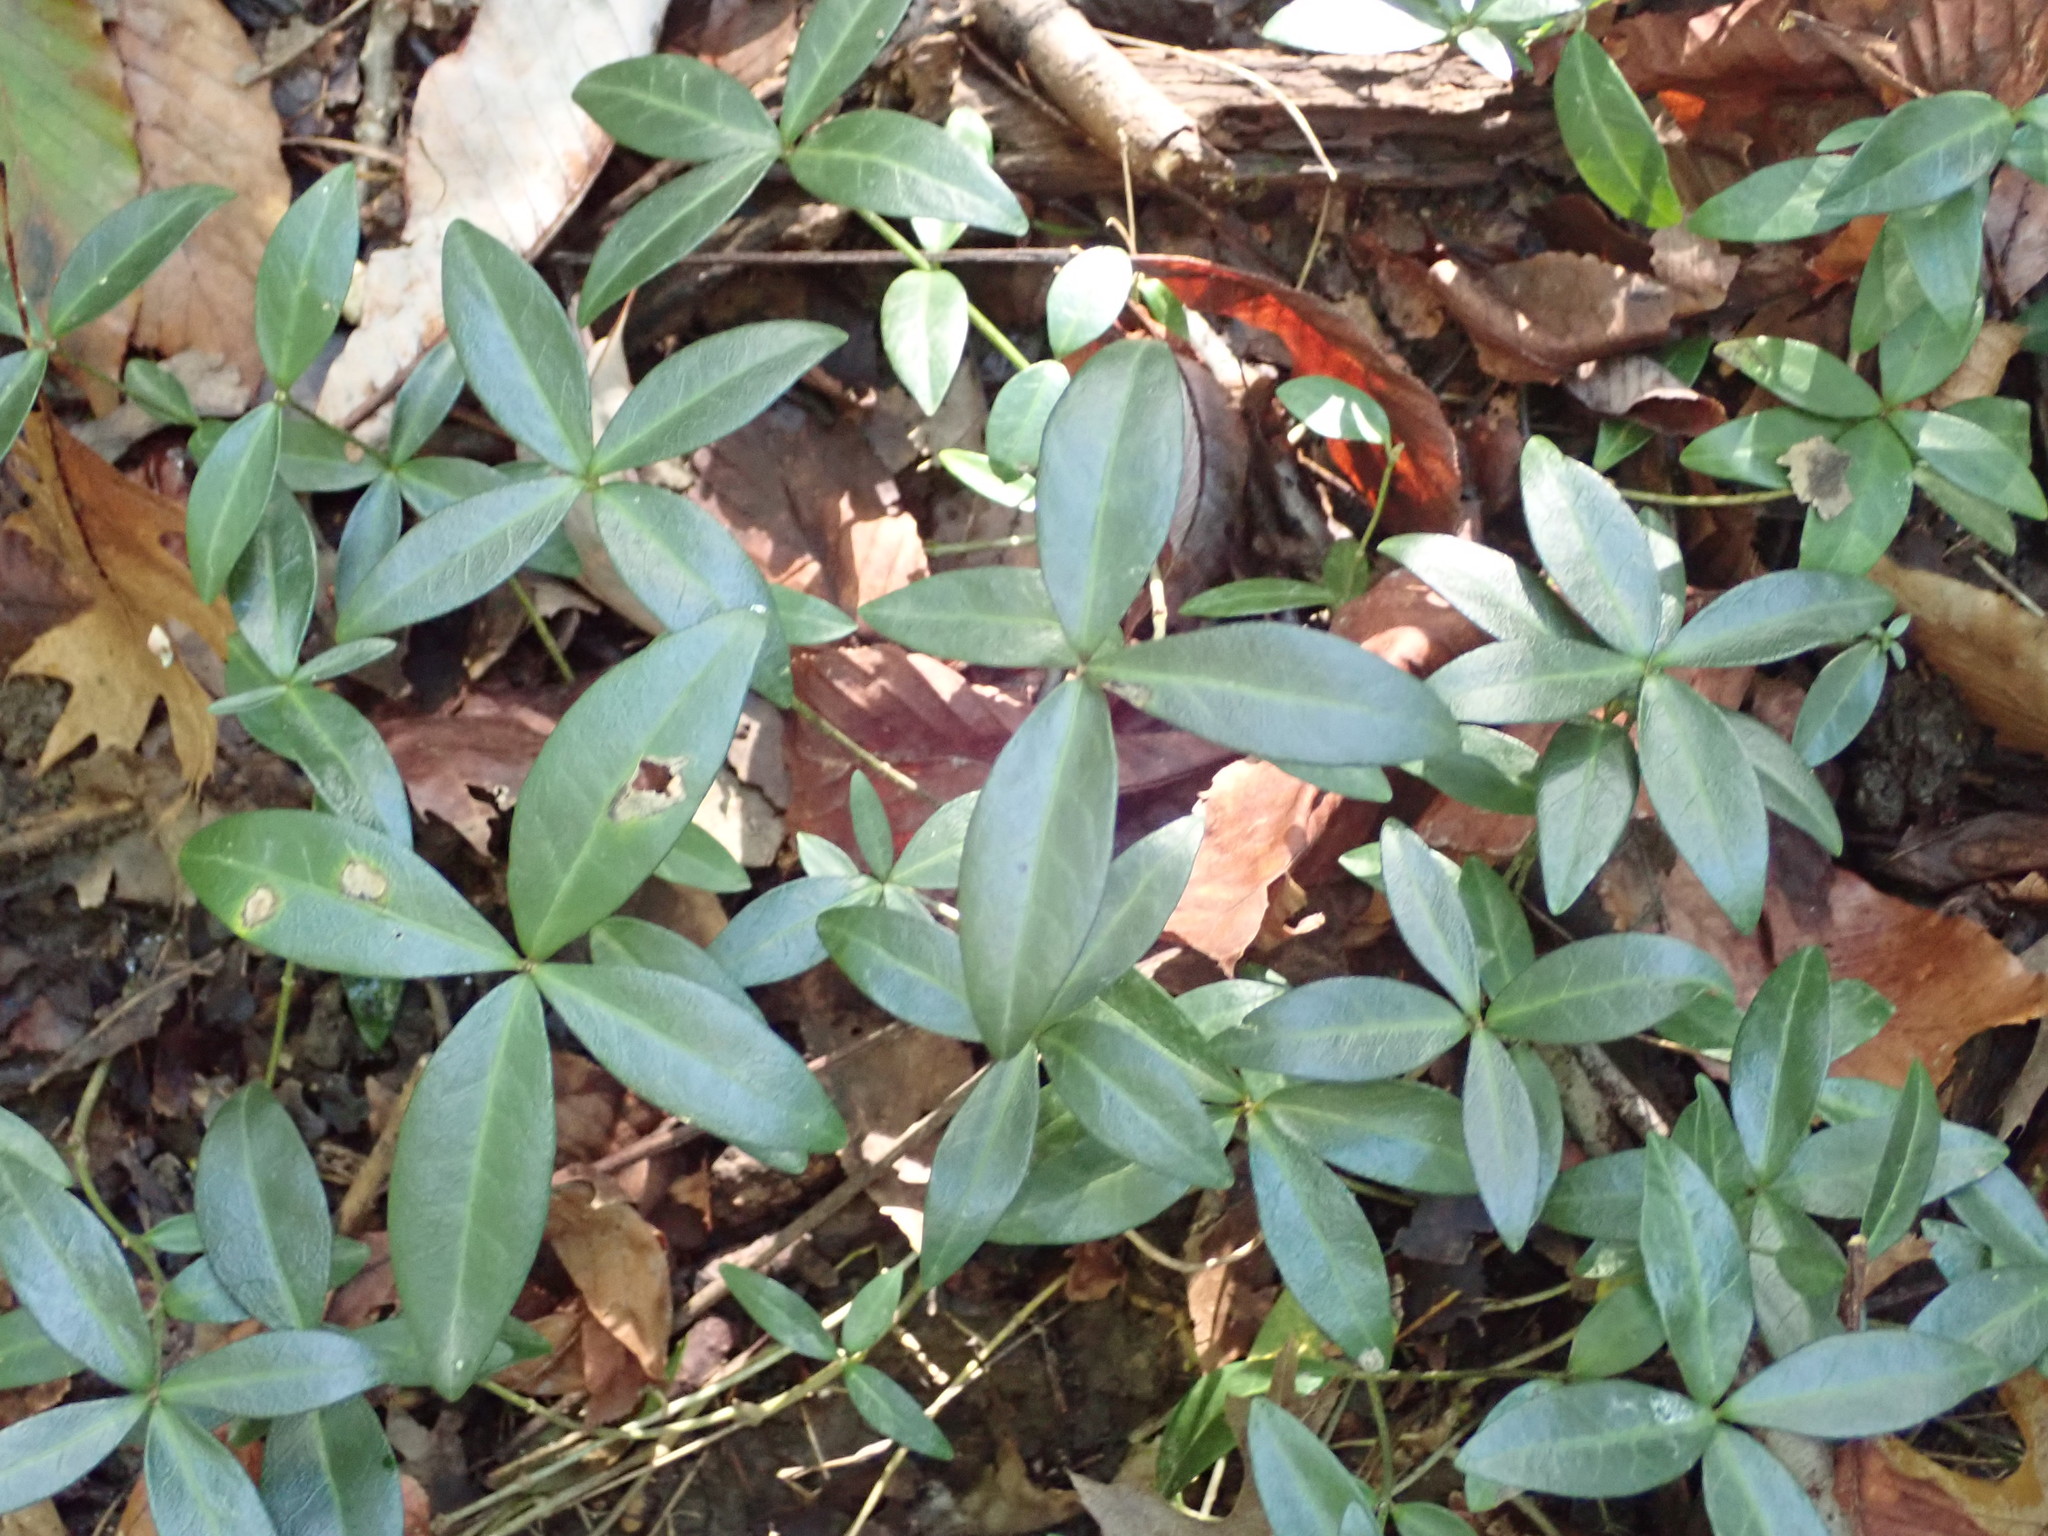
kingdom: Plantae
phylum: Tracheophyta
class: Magnoliopsida
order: Gentianales
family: Apocynaceae
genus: Vinca
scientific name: Vinca minor
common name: Lesser periwinkle
